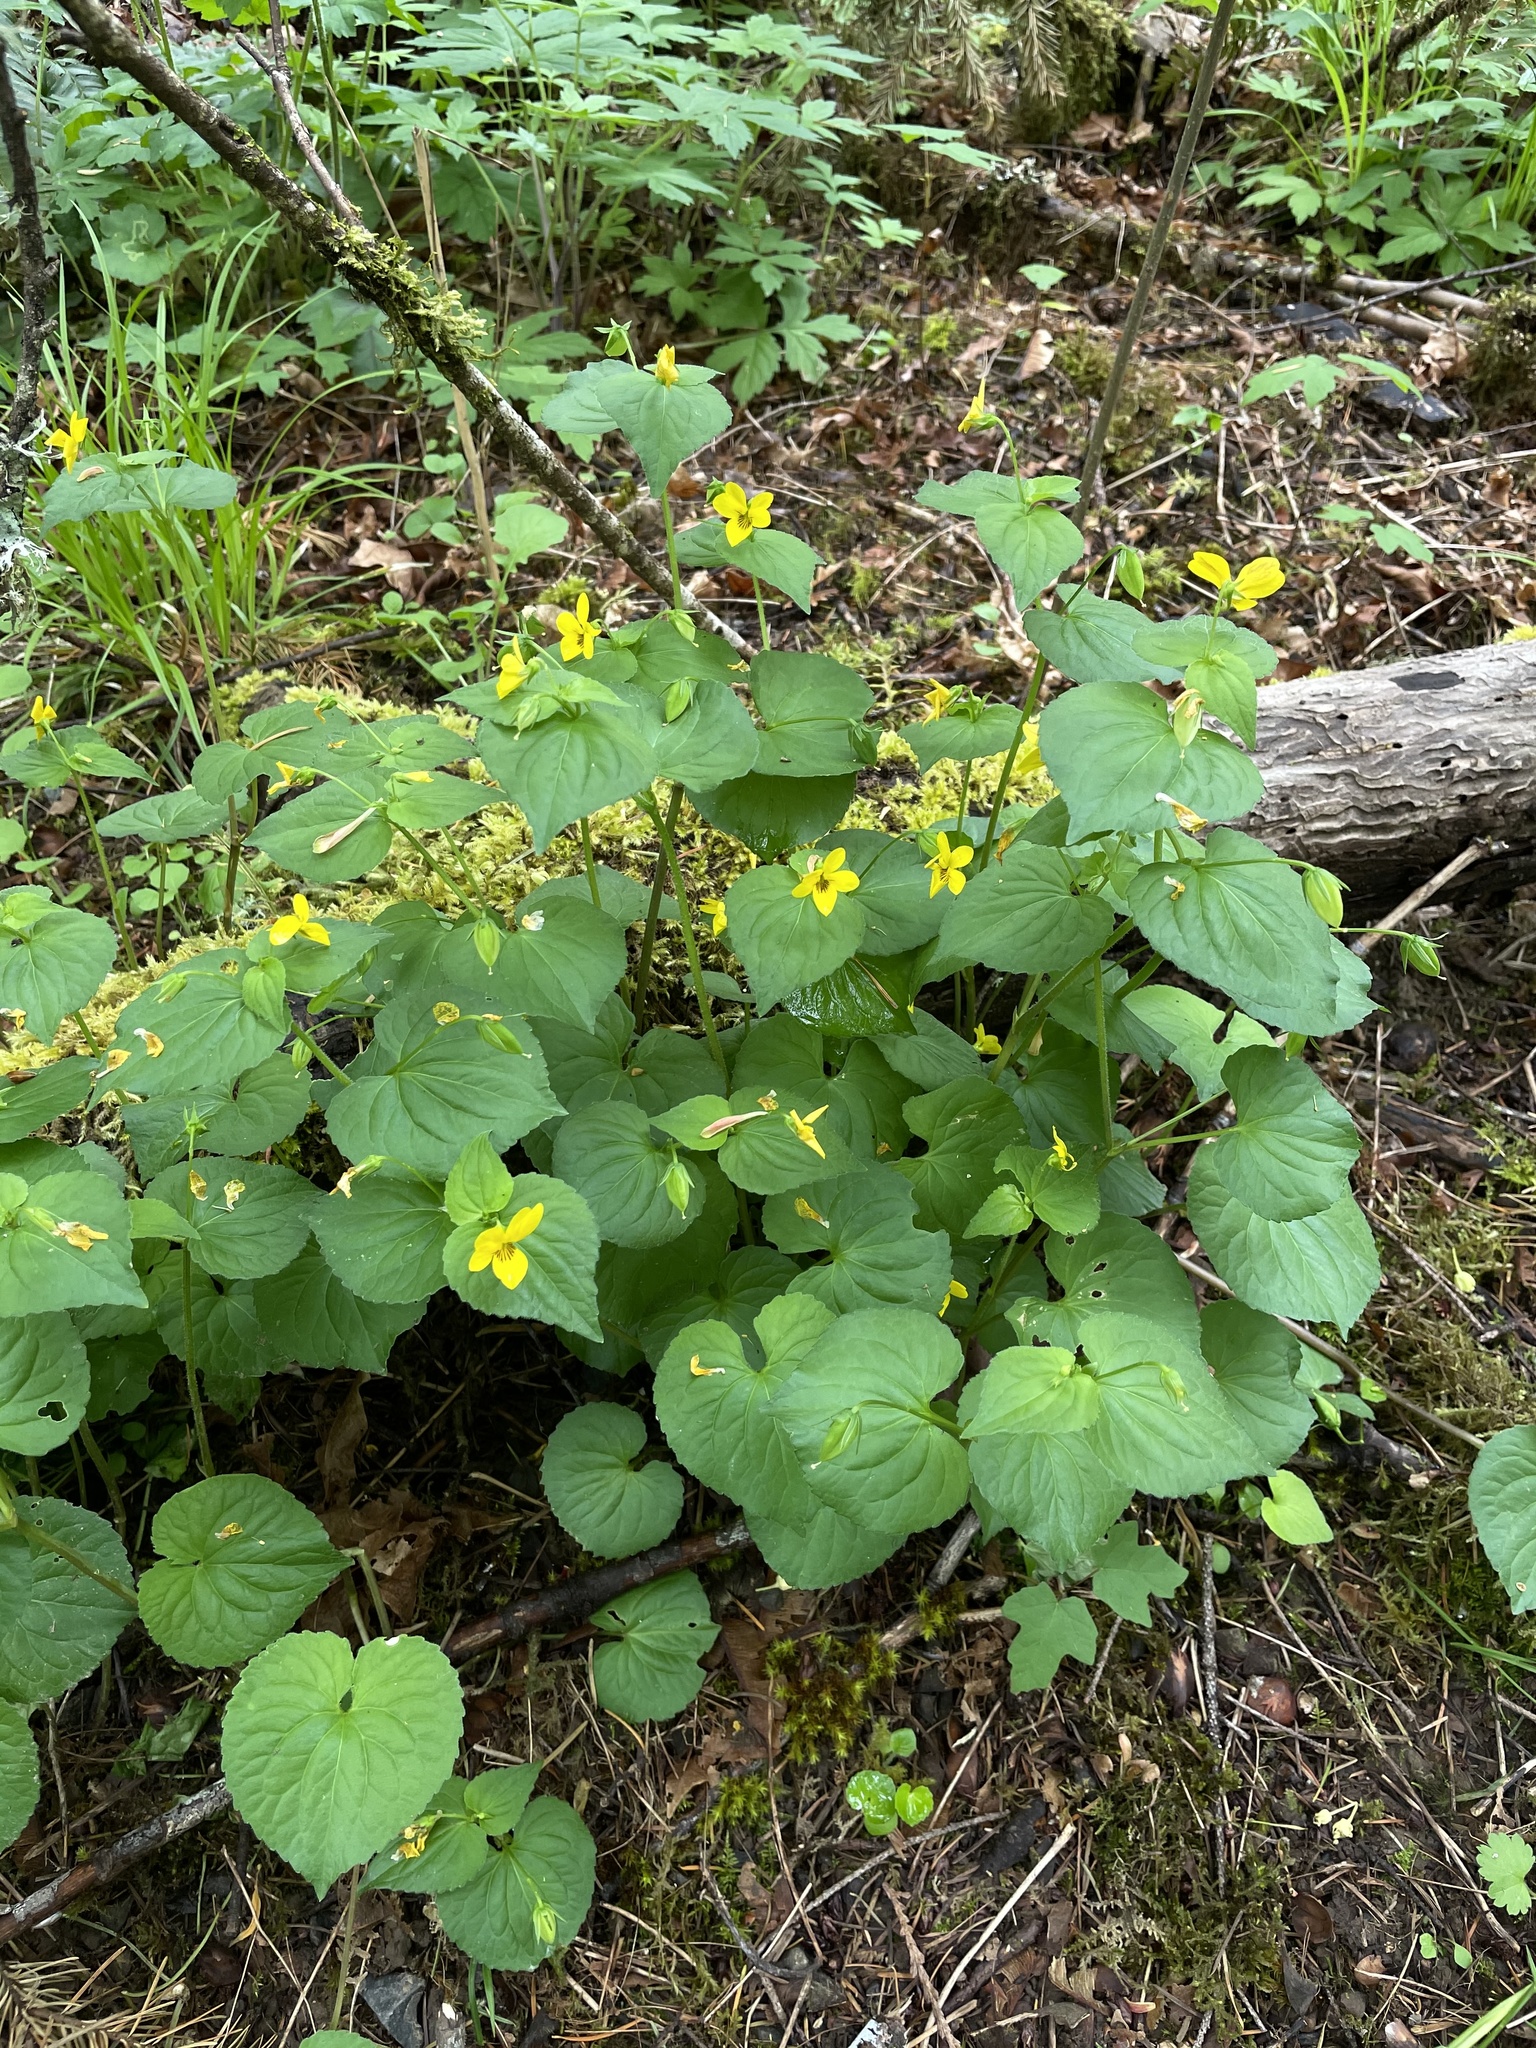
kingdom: Plantae
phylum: Tracheophyta
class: Magnoliopsida
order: Malpighiales
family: Violaceae
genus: Viola
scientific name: Viola glabella
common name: Stream violet
